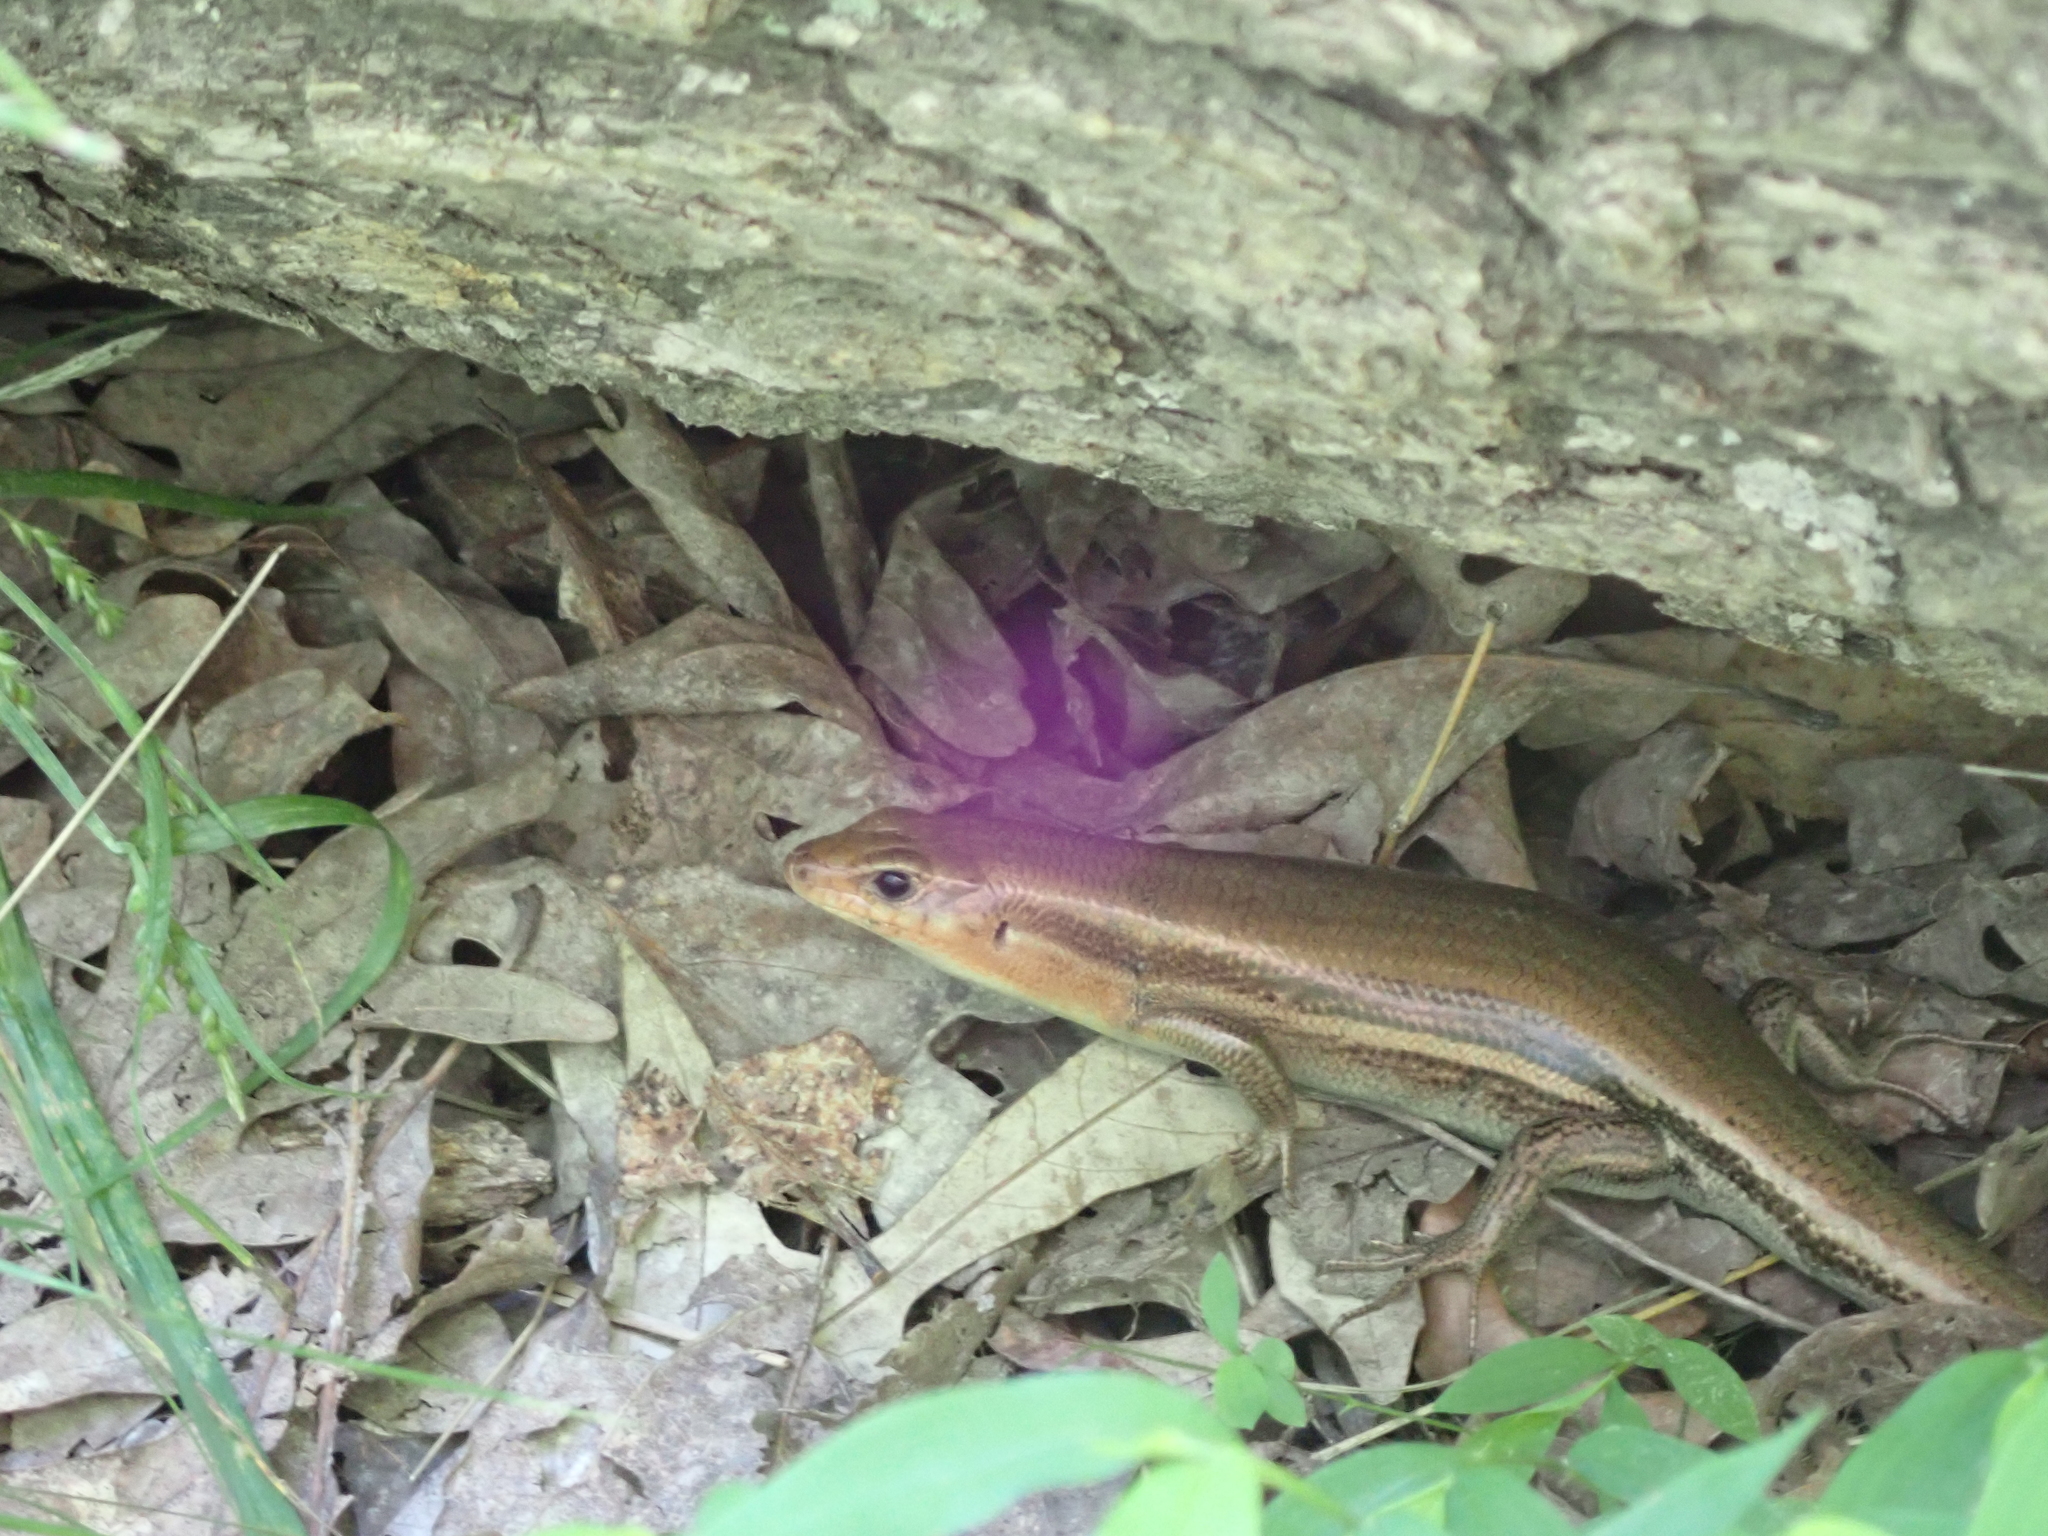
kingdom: Animalia
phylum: Chordata
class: Squamata
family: Scincidae
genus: Plestiodon
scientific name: Plestiodon laticeps
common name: Broadhead skink
